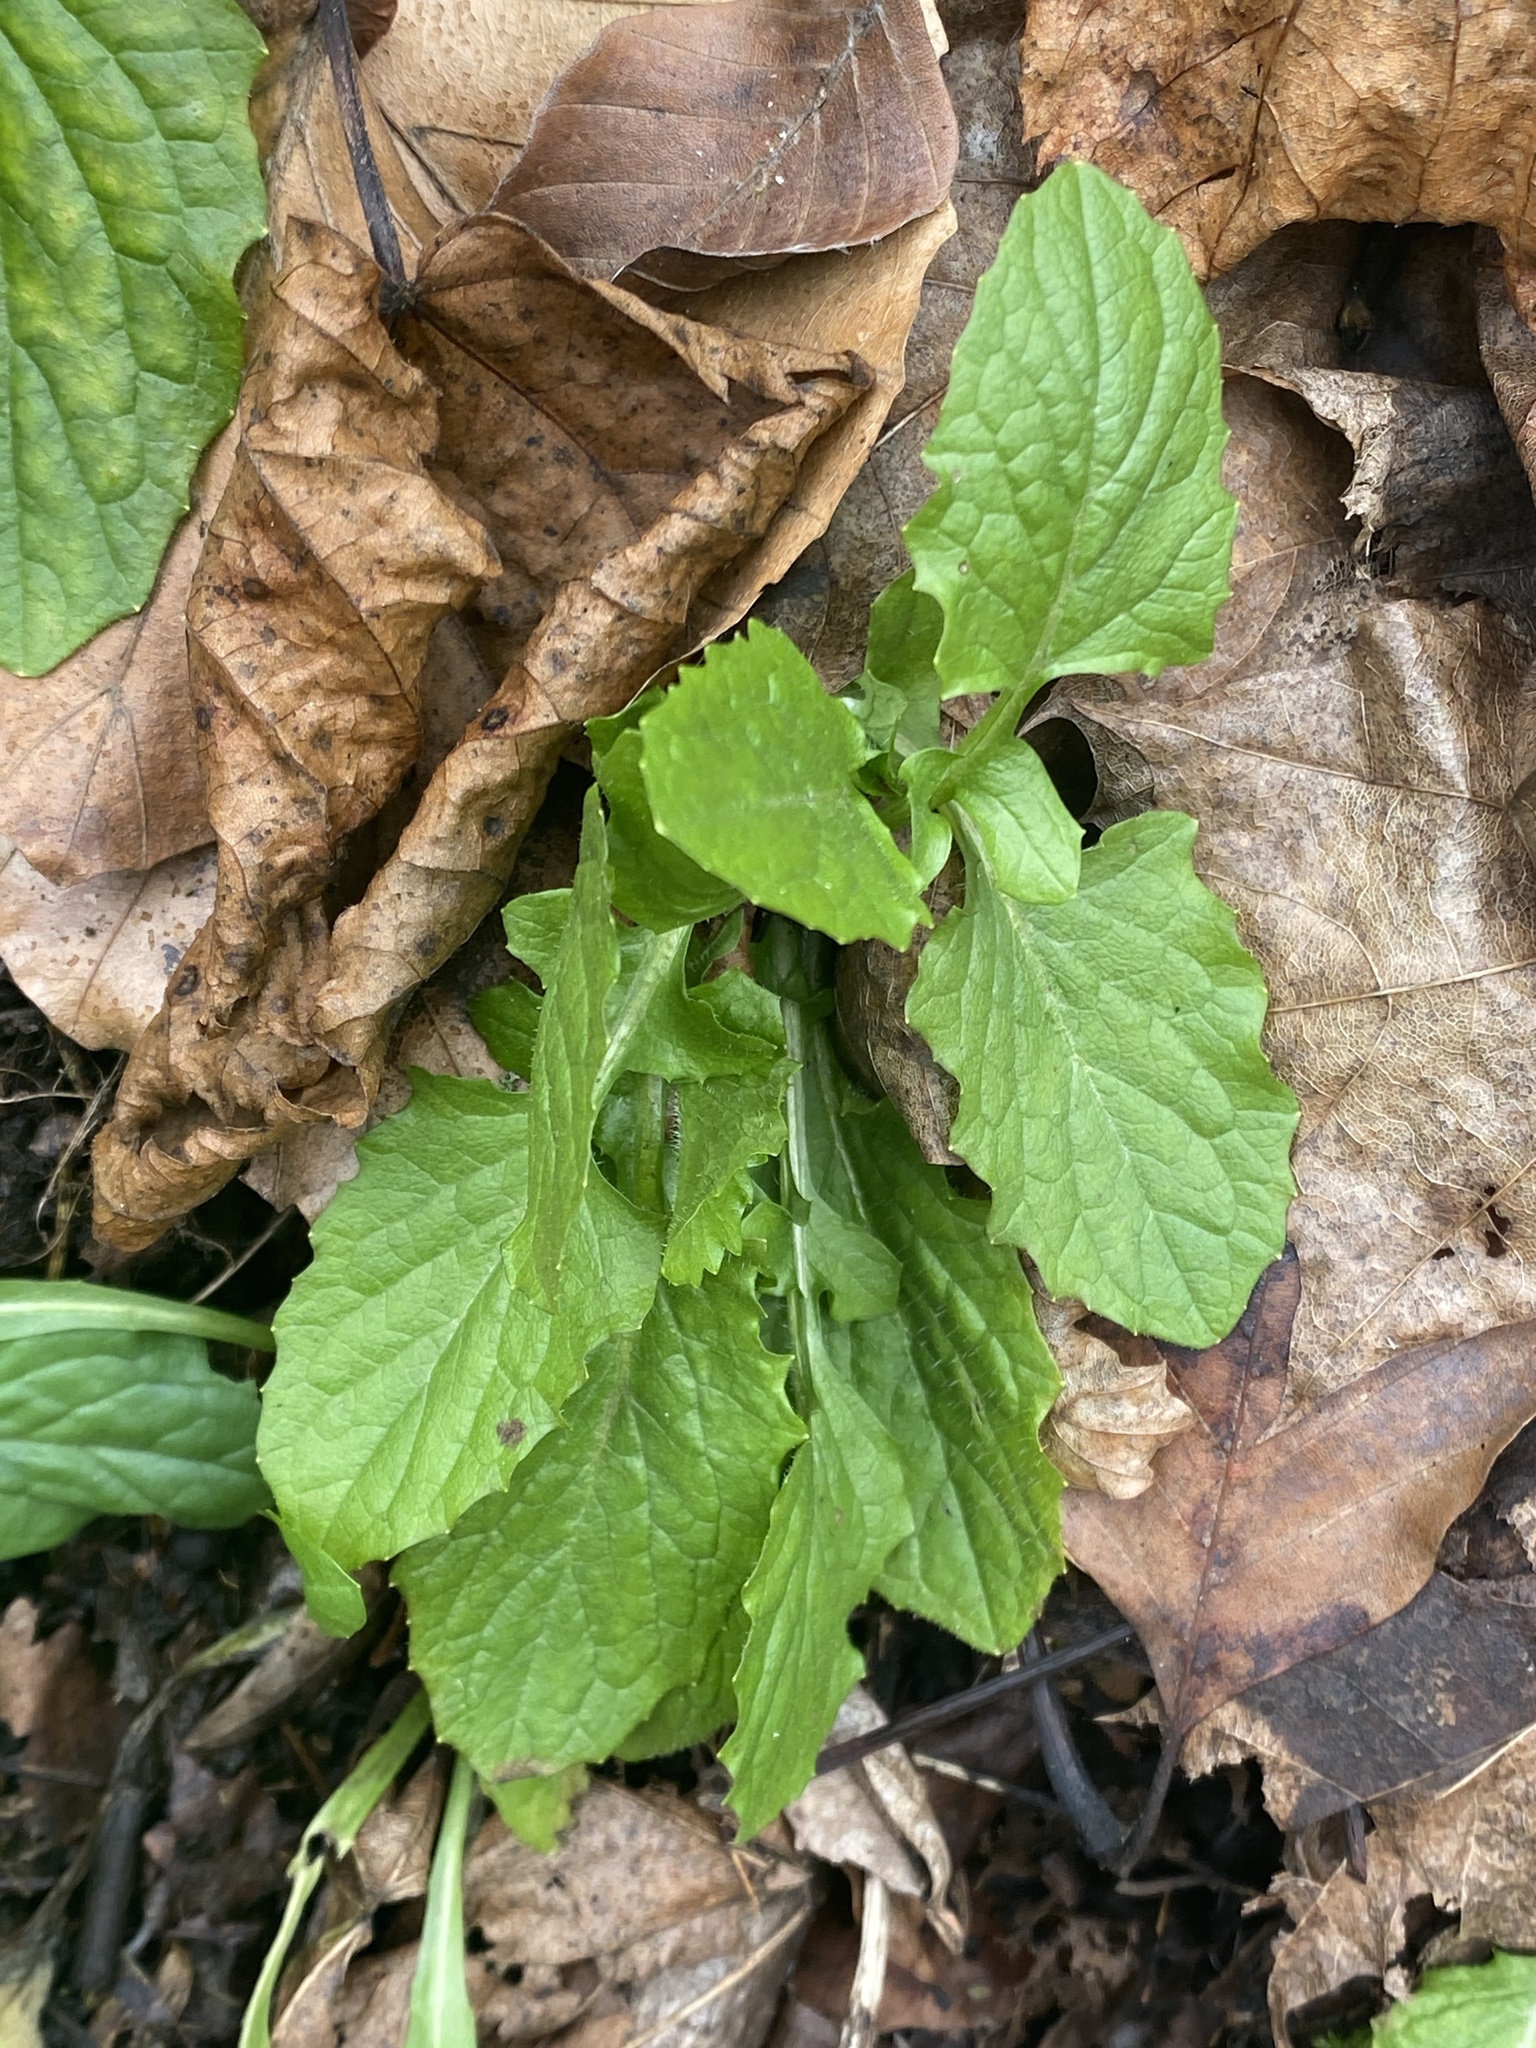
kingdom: Plantae
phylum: Tracheophyta
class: Magnoliopsida
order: Asterales
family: Asteraceae
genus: Lapsana
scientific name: Lapsana communis
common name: Nipplewort
